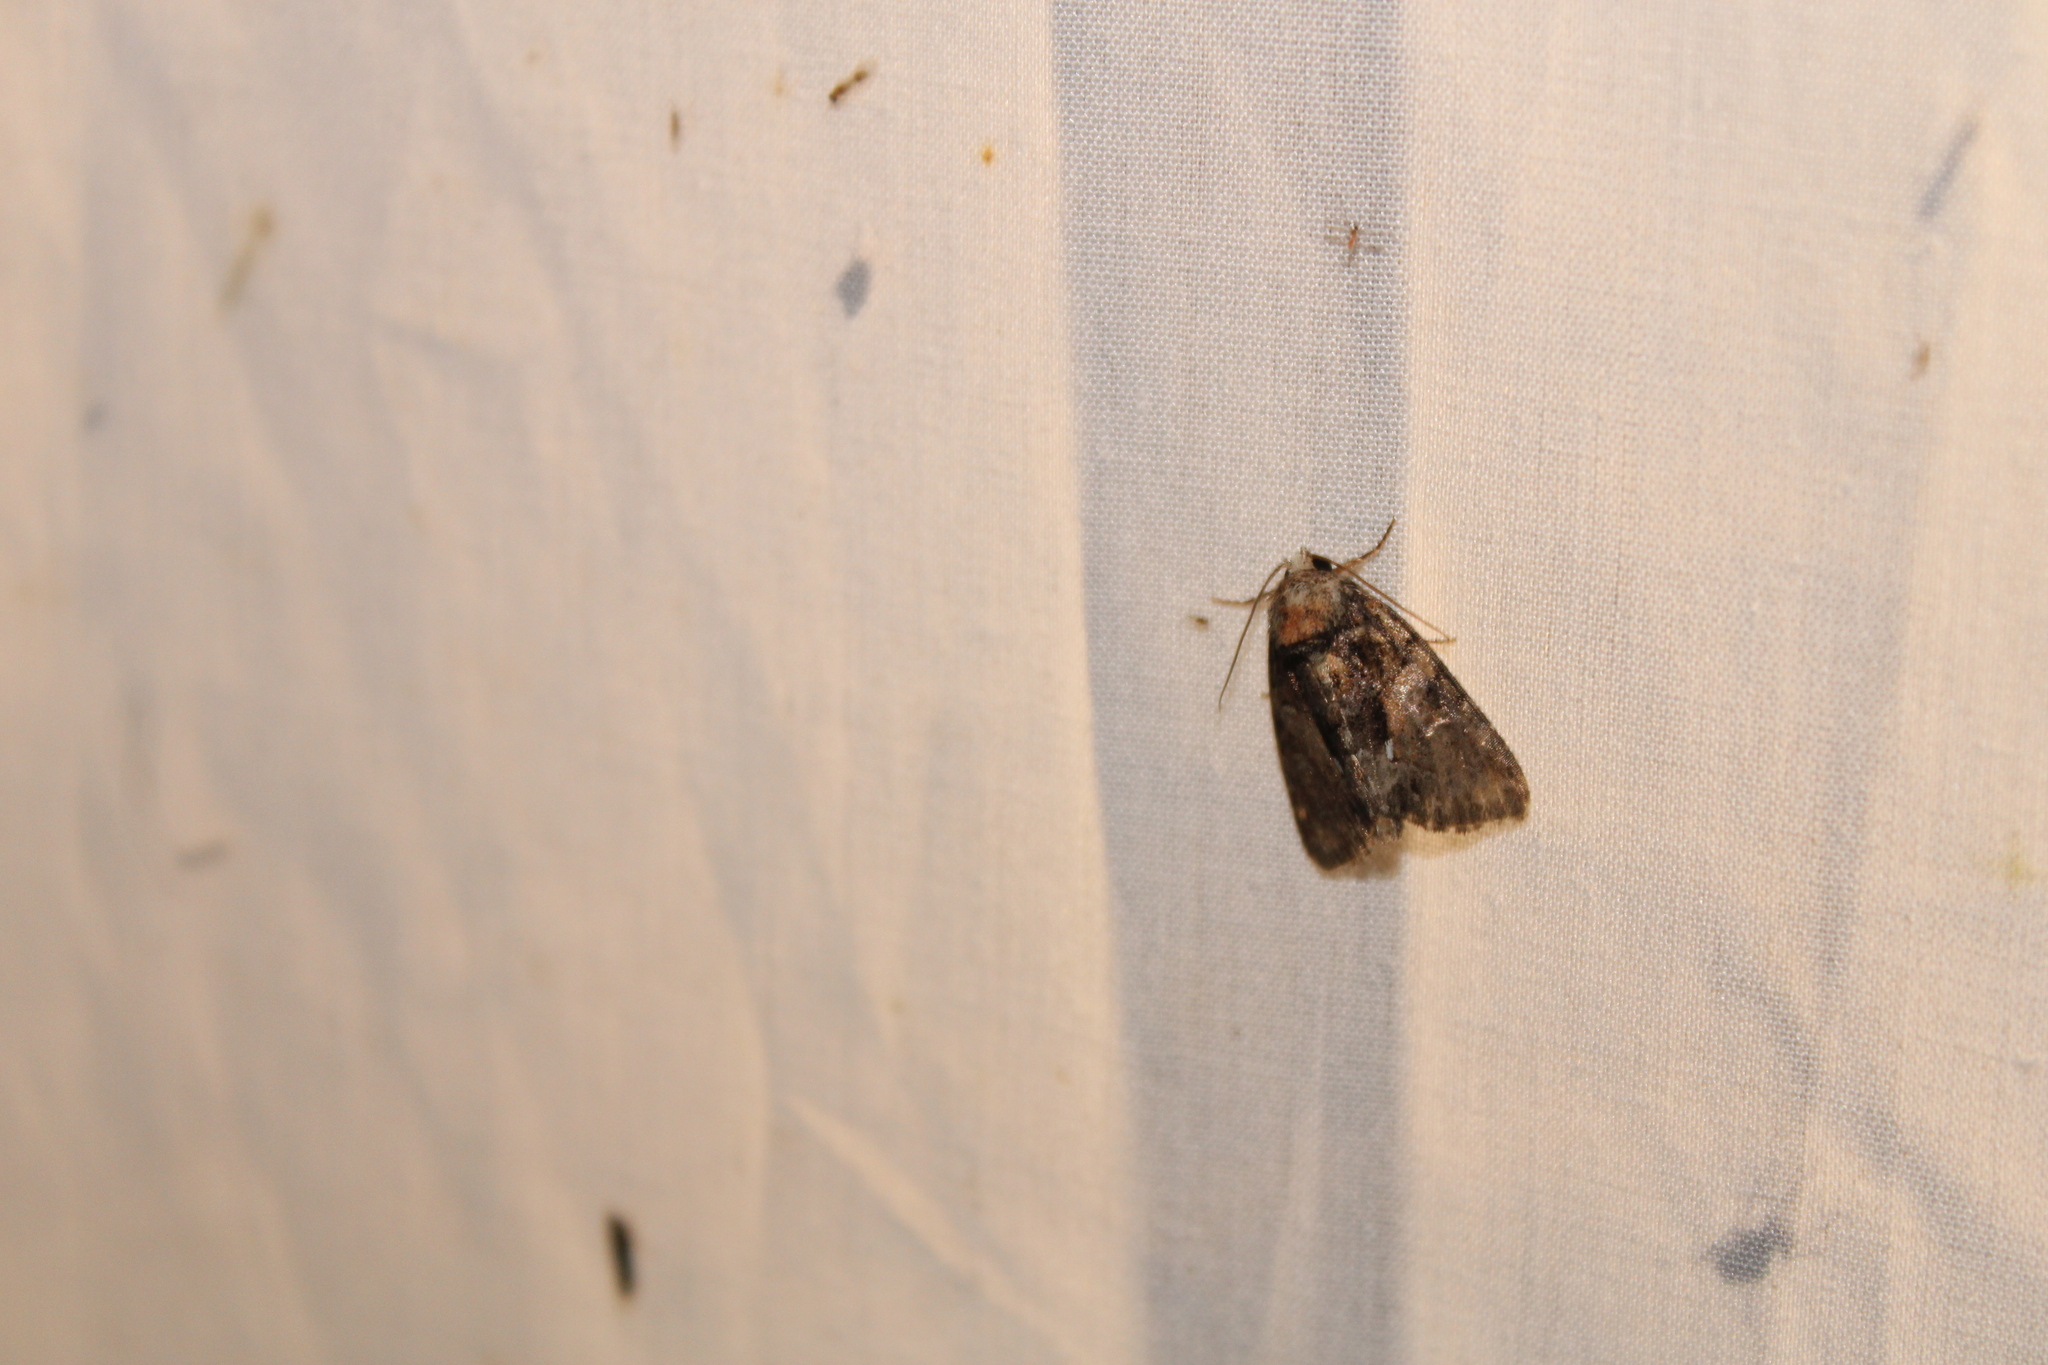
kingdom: Animalia
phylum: Arthropoda
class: Insecta
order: Lepidoptera
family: Noctuidae
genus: Chytonix
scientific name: Chytonix palliatricula
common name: Cloaked marvel
